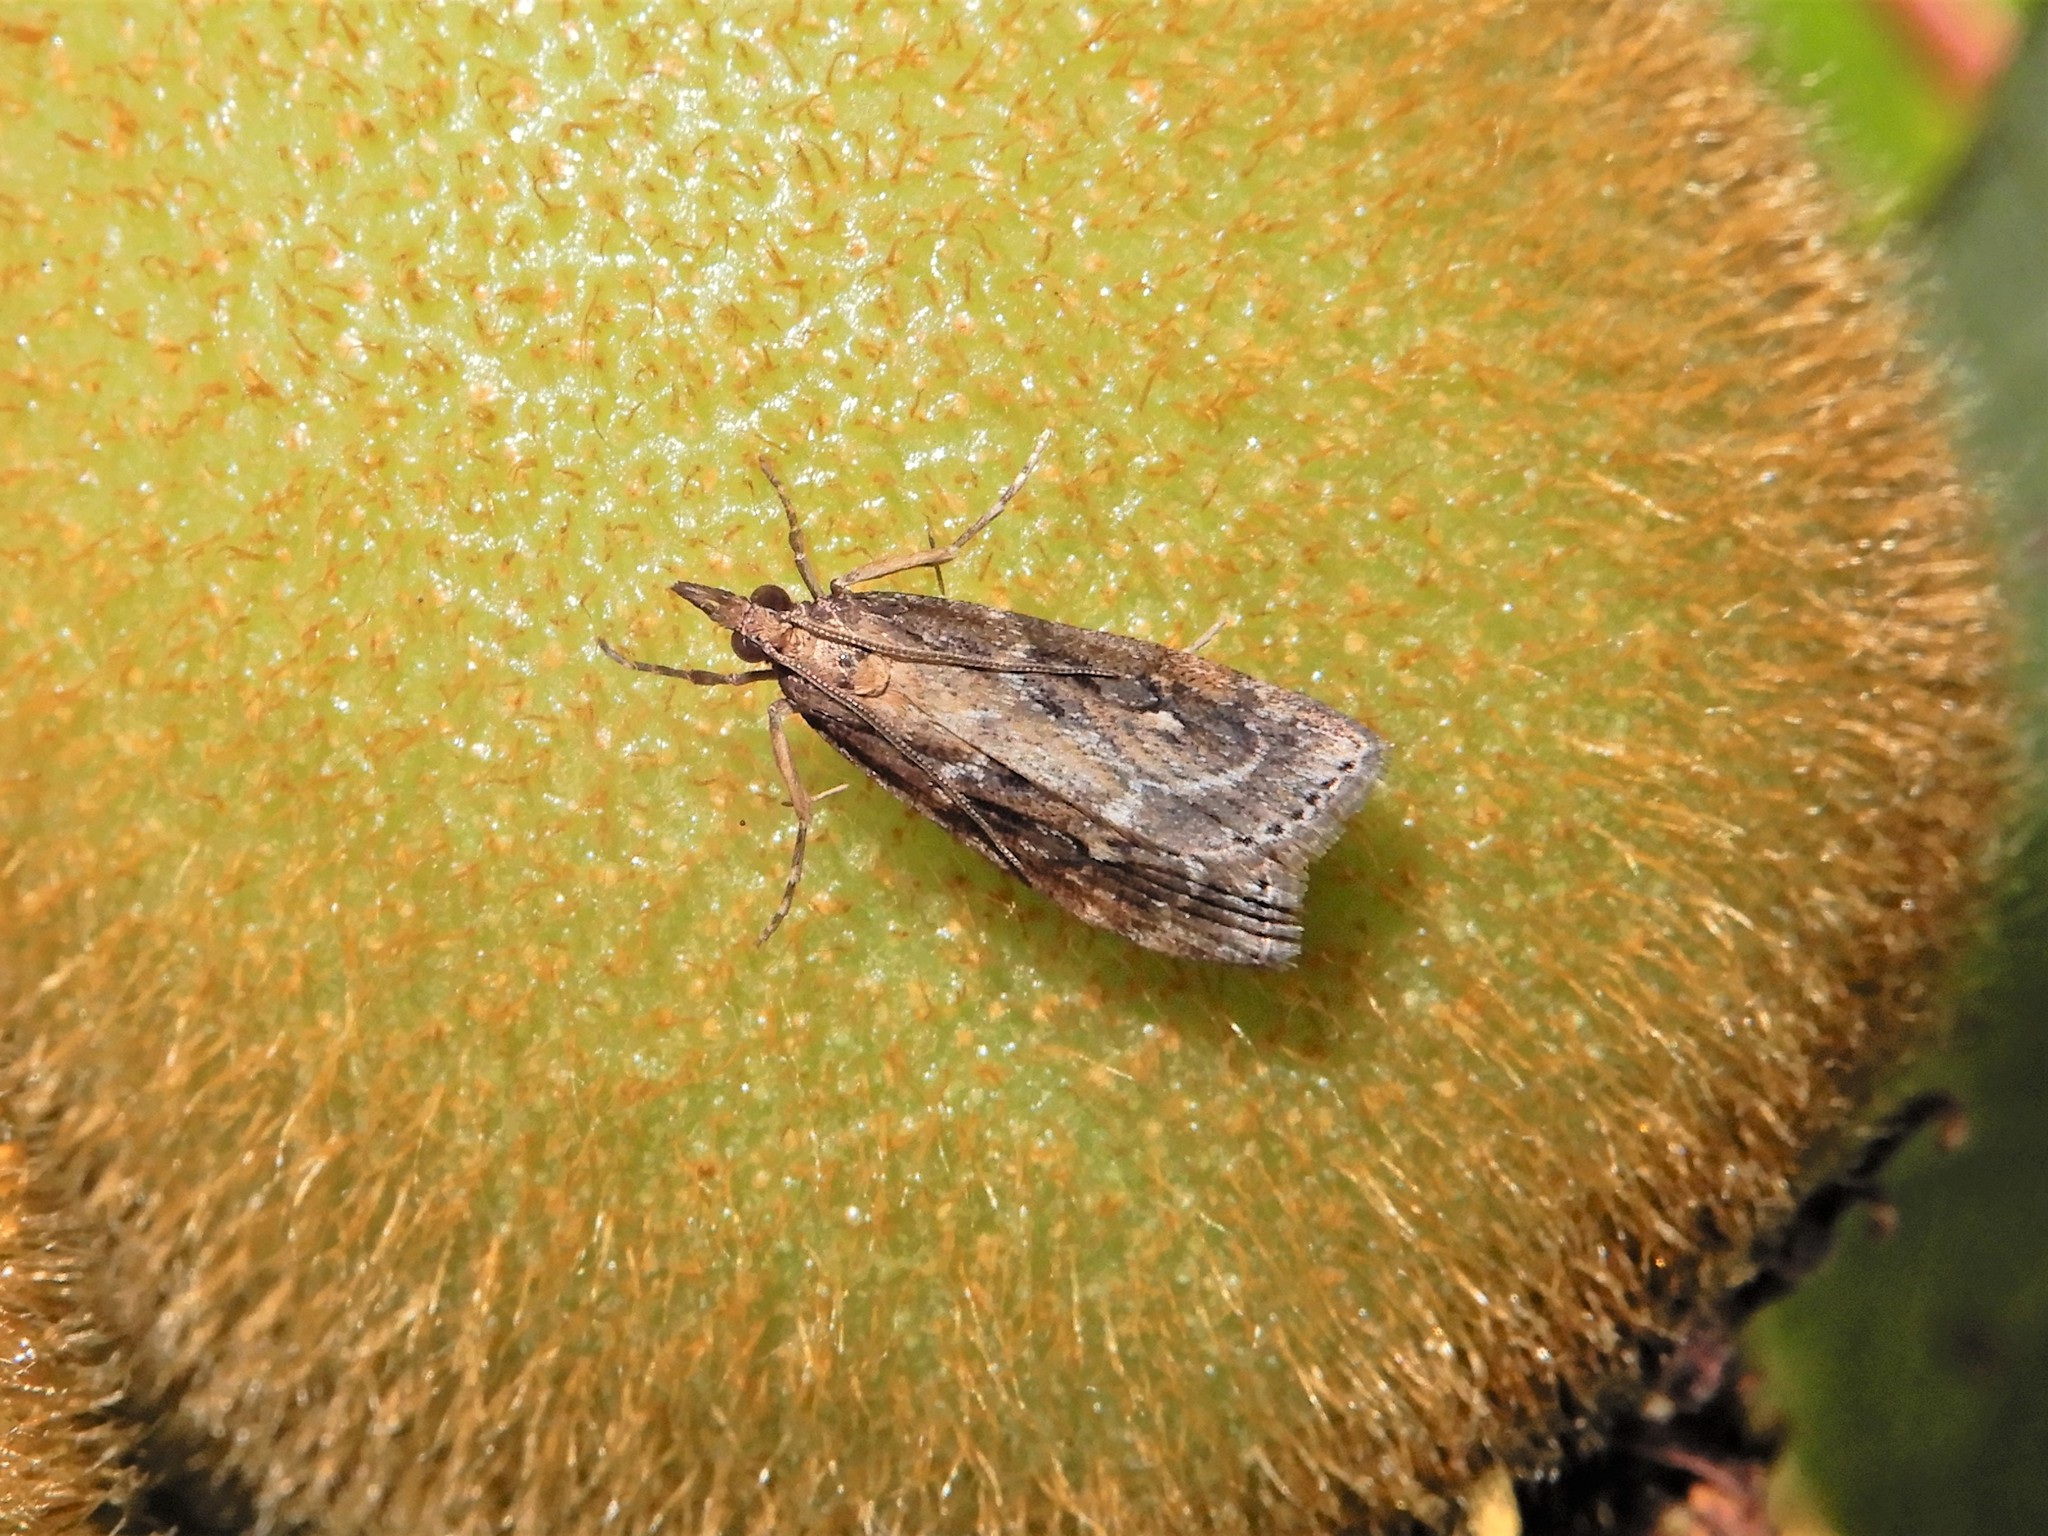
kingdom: Animalia
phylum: Arthropoda
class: Insecta
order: Lepidoptera
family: Crambidae
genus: Eudonia
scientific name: Eudonia octophora
